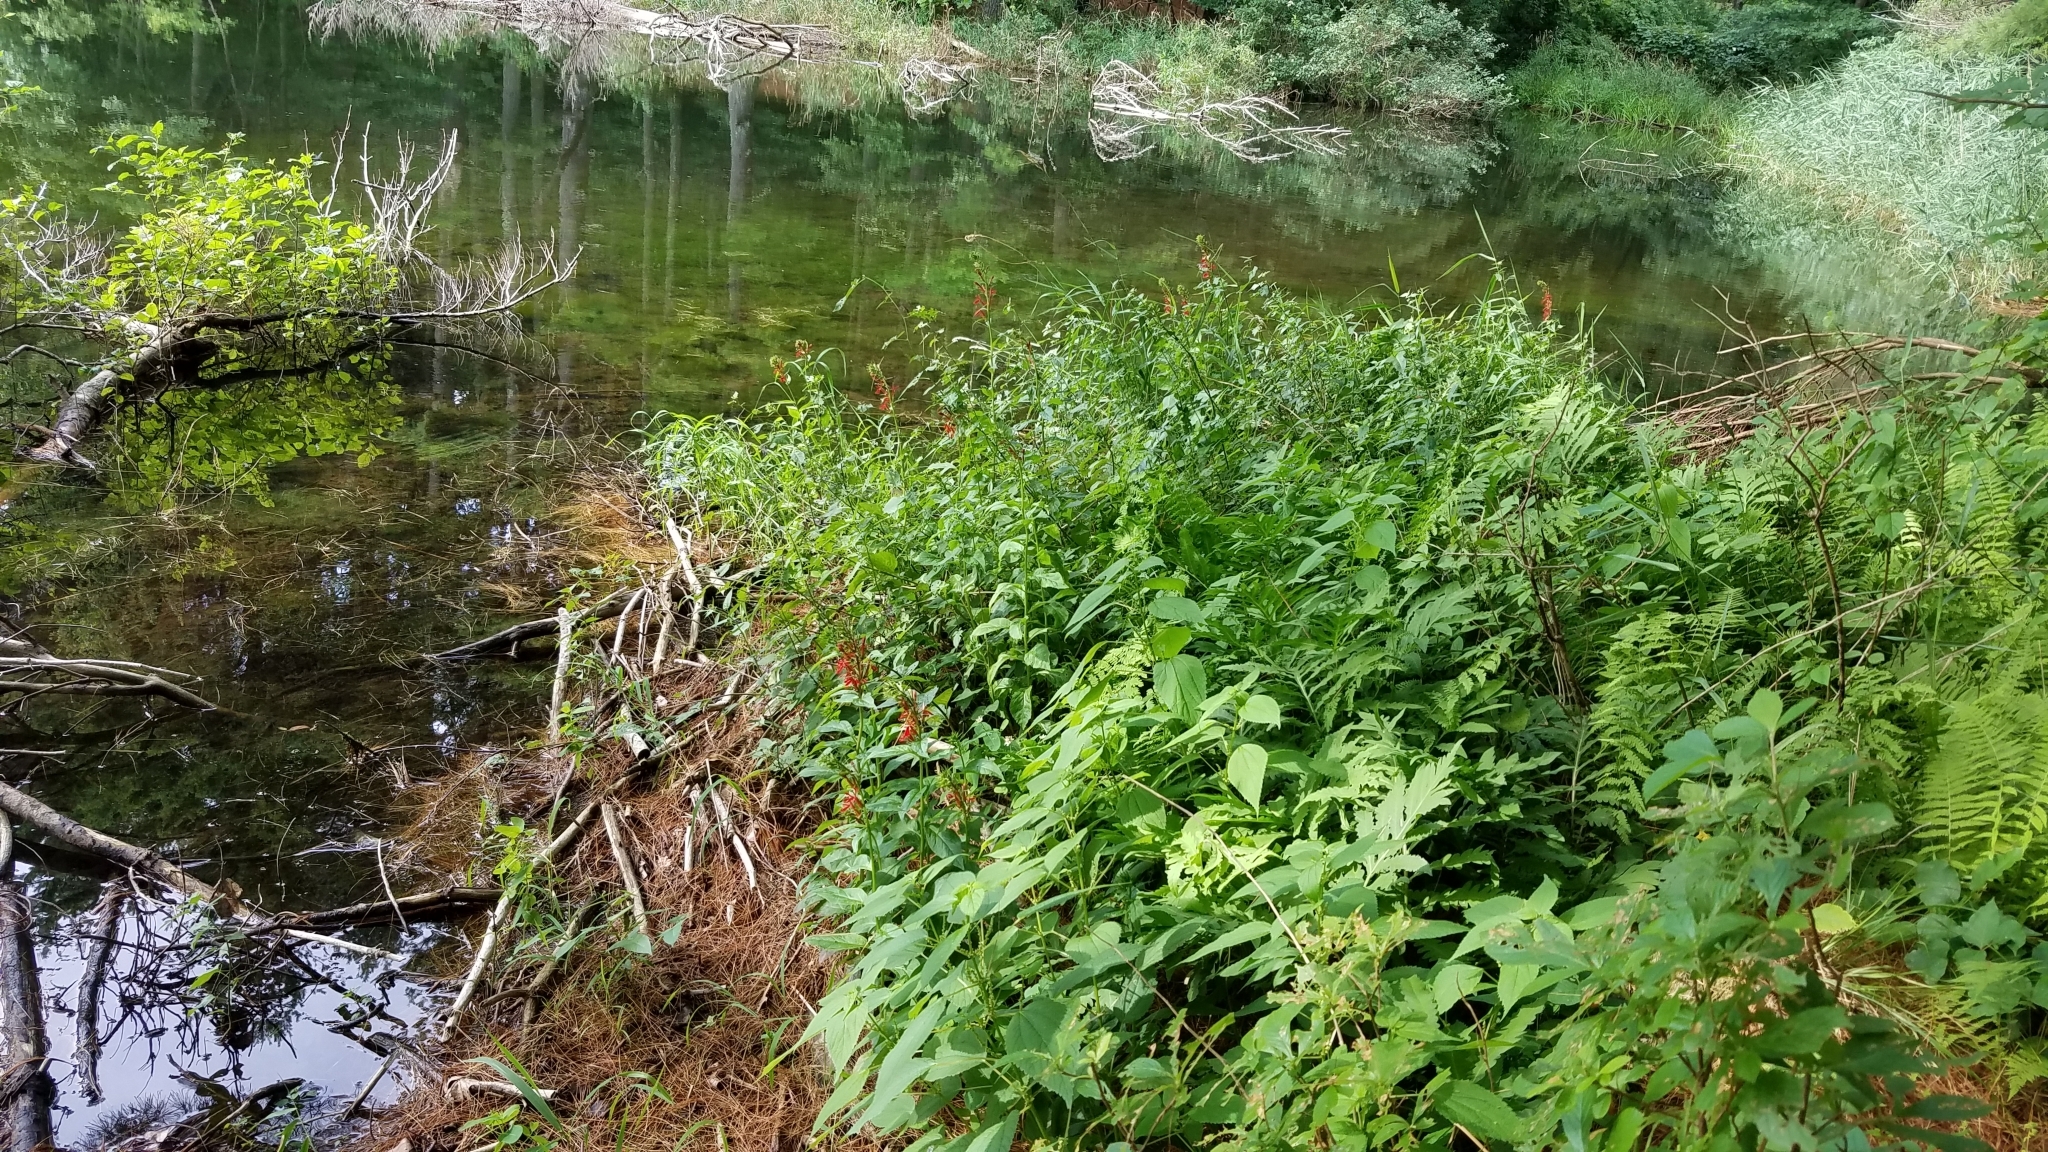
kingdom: Plantae
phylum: Tracheophyta
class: Magnoliopsida
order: Asterales
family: Campanulaceae
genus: Lobelia
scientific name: Lobelia cardinalis
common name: Cardinal flower
